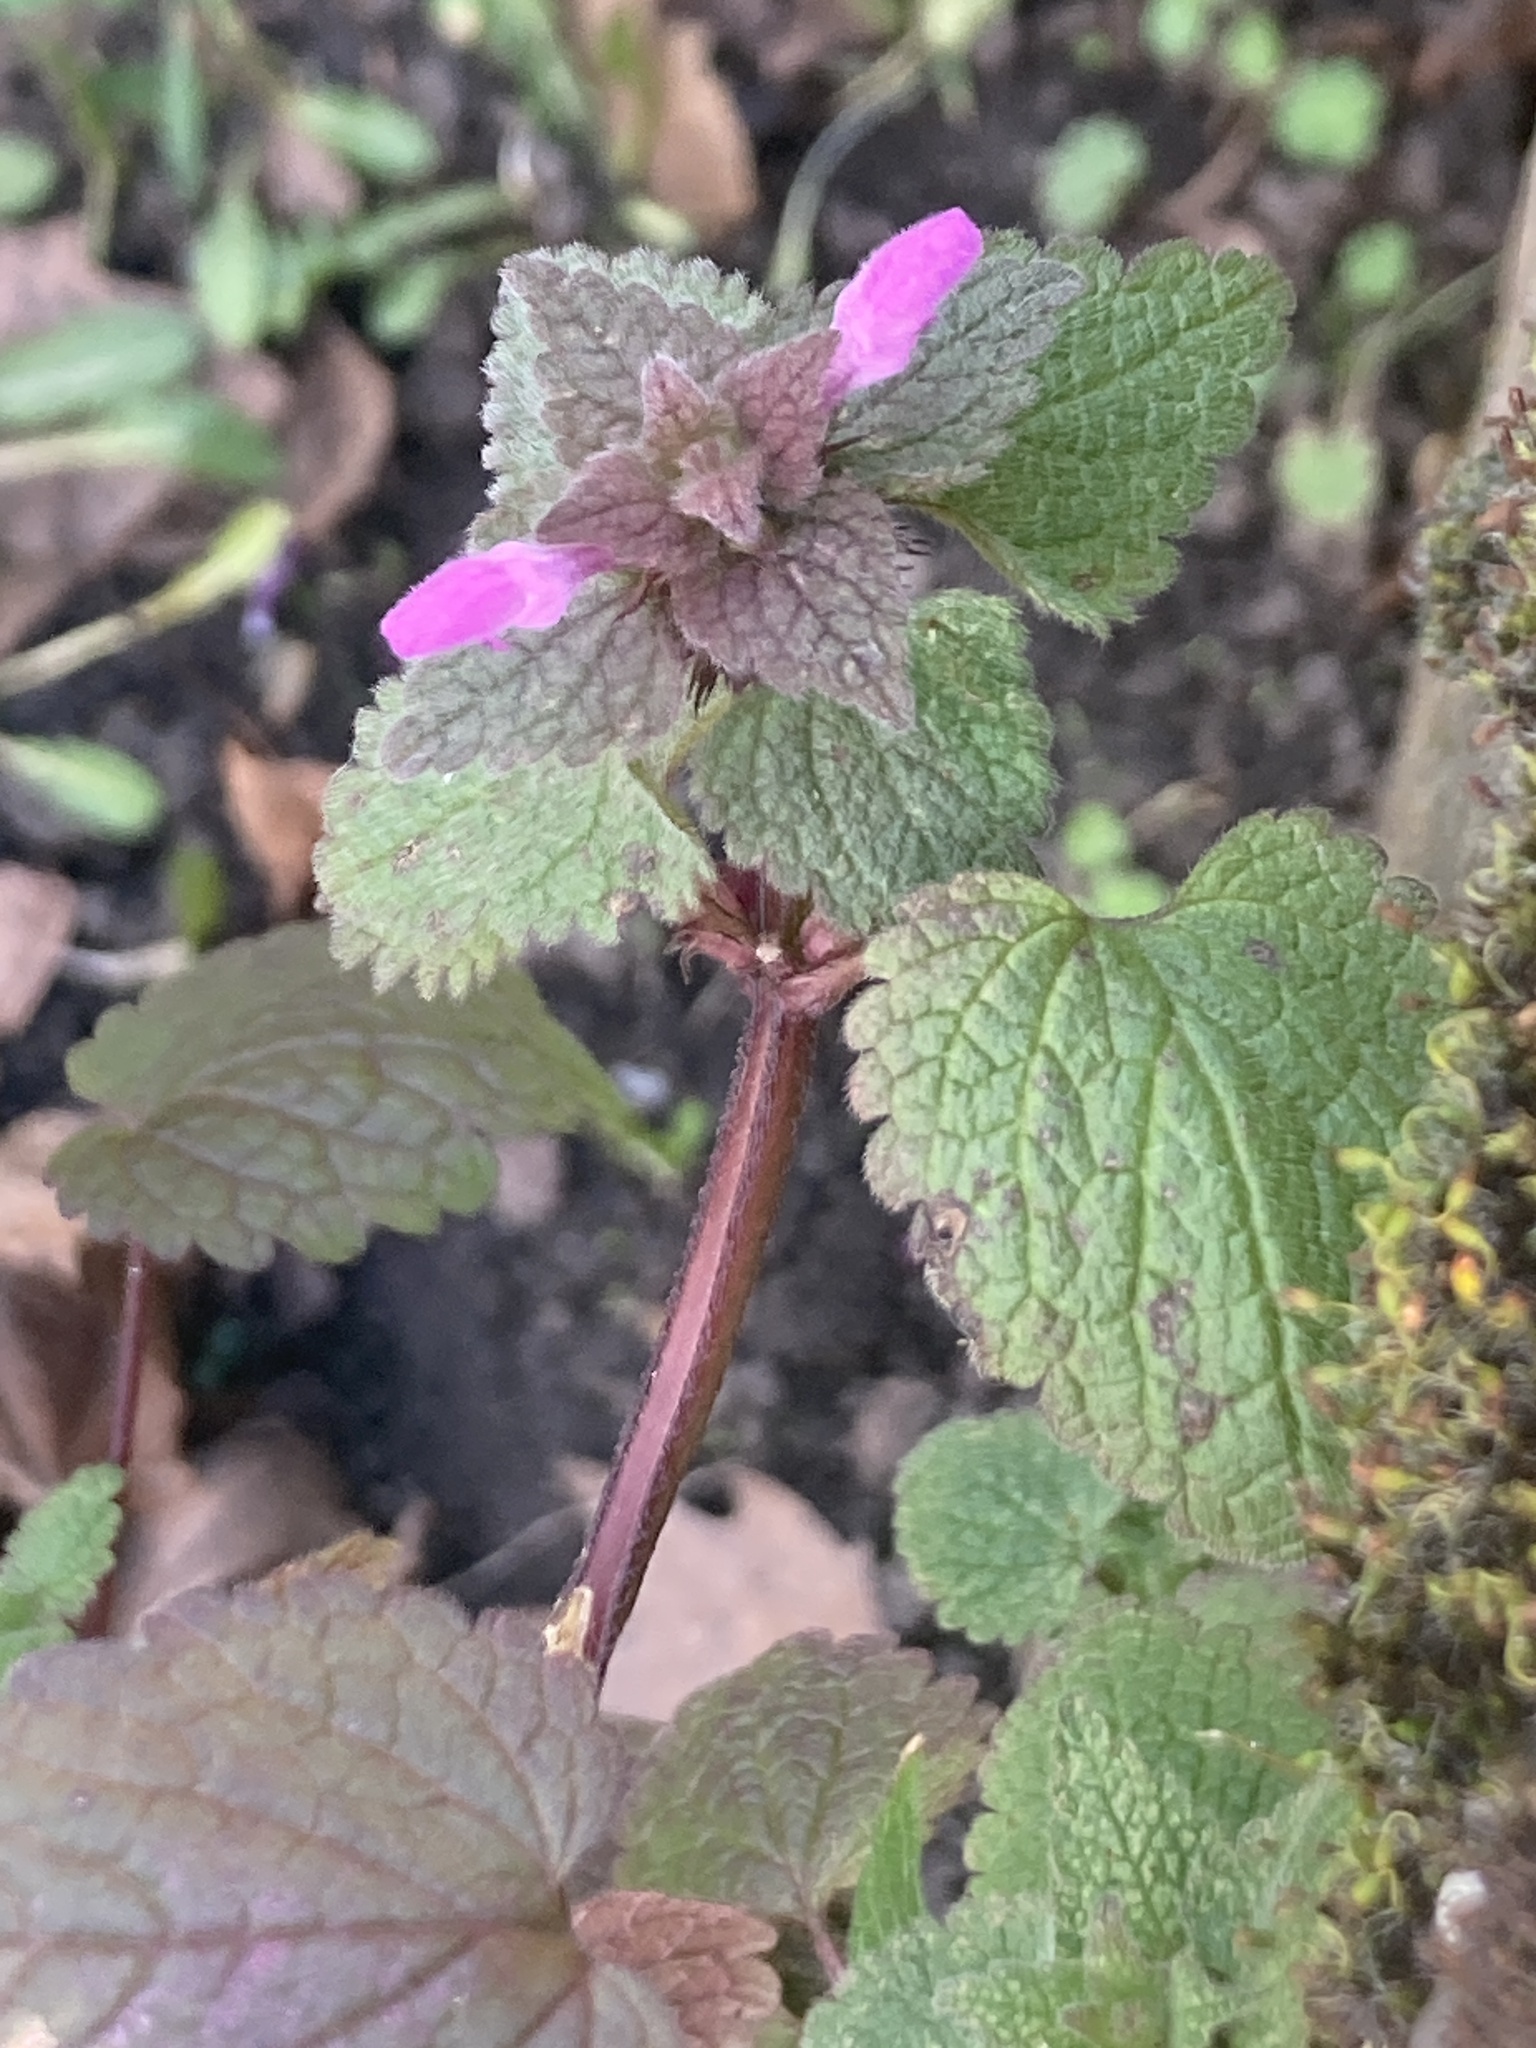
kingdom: Plantae
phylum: Tracheophyta
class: Magnoliopsida
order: Lamiales
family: Lamiaceae
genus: Lamium
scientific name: Lamium purpureum
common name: Red dead-nettle
